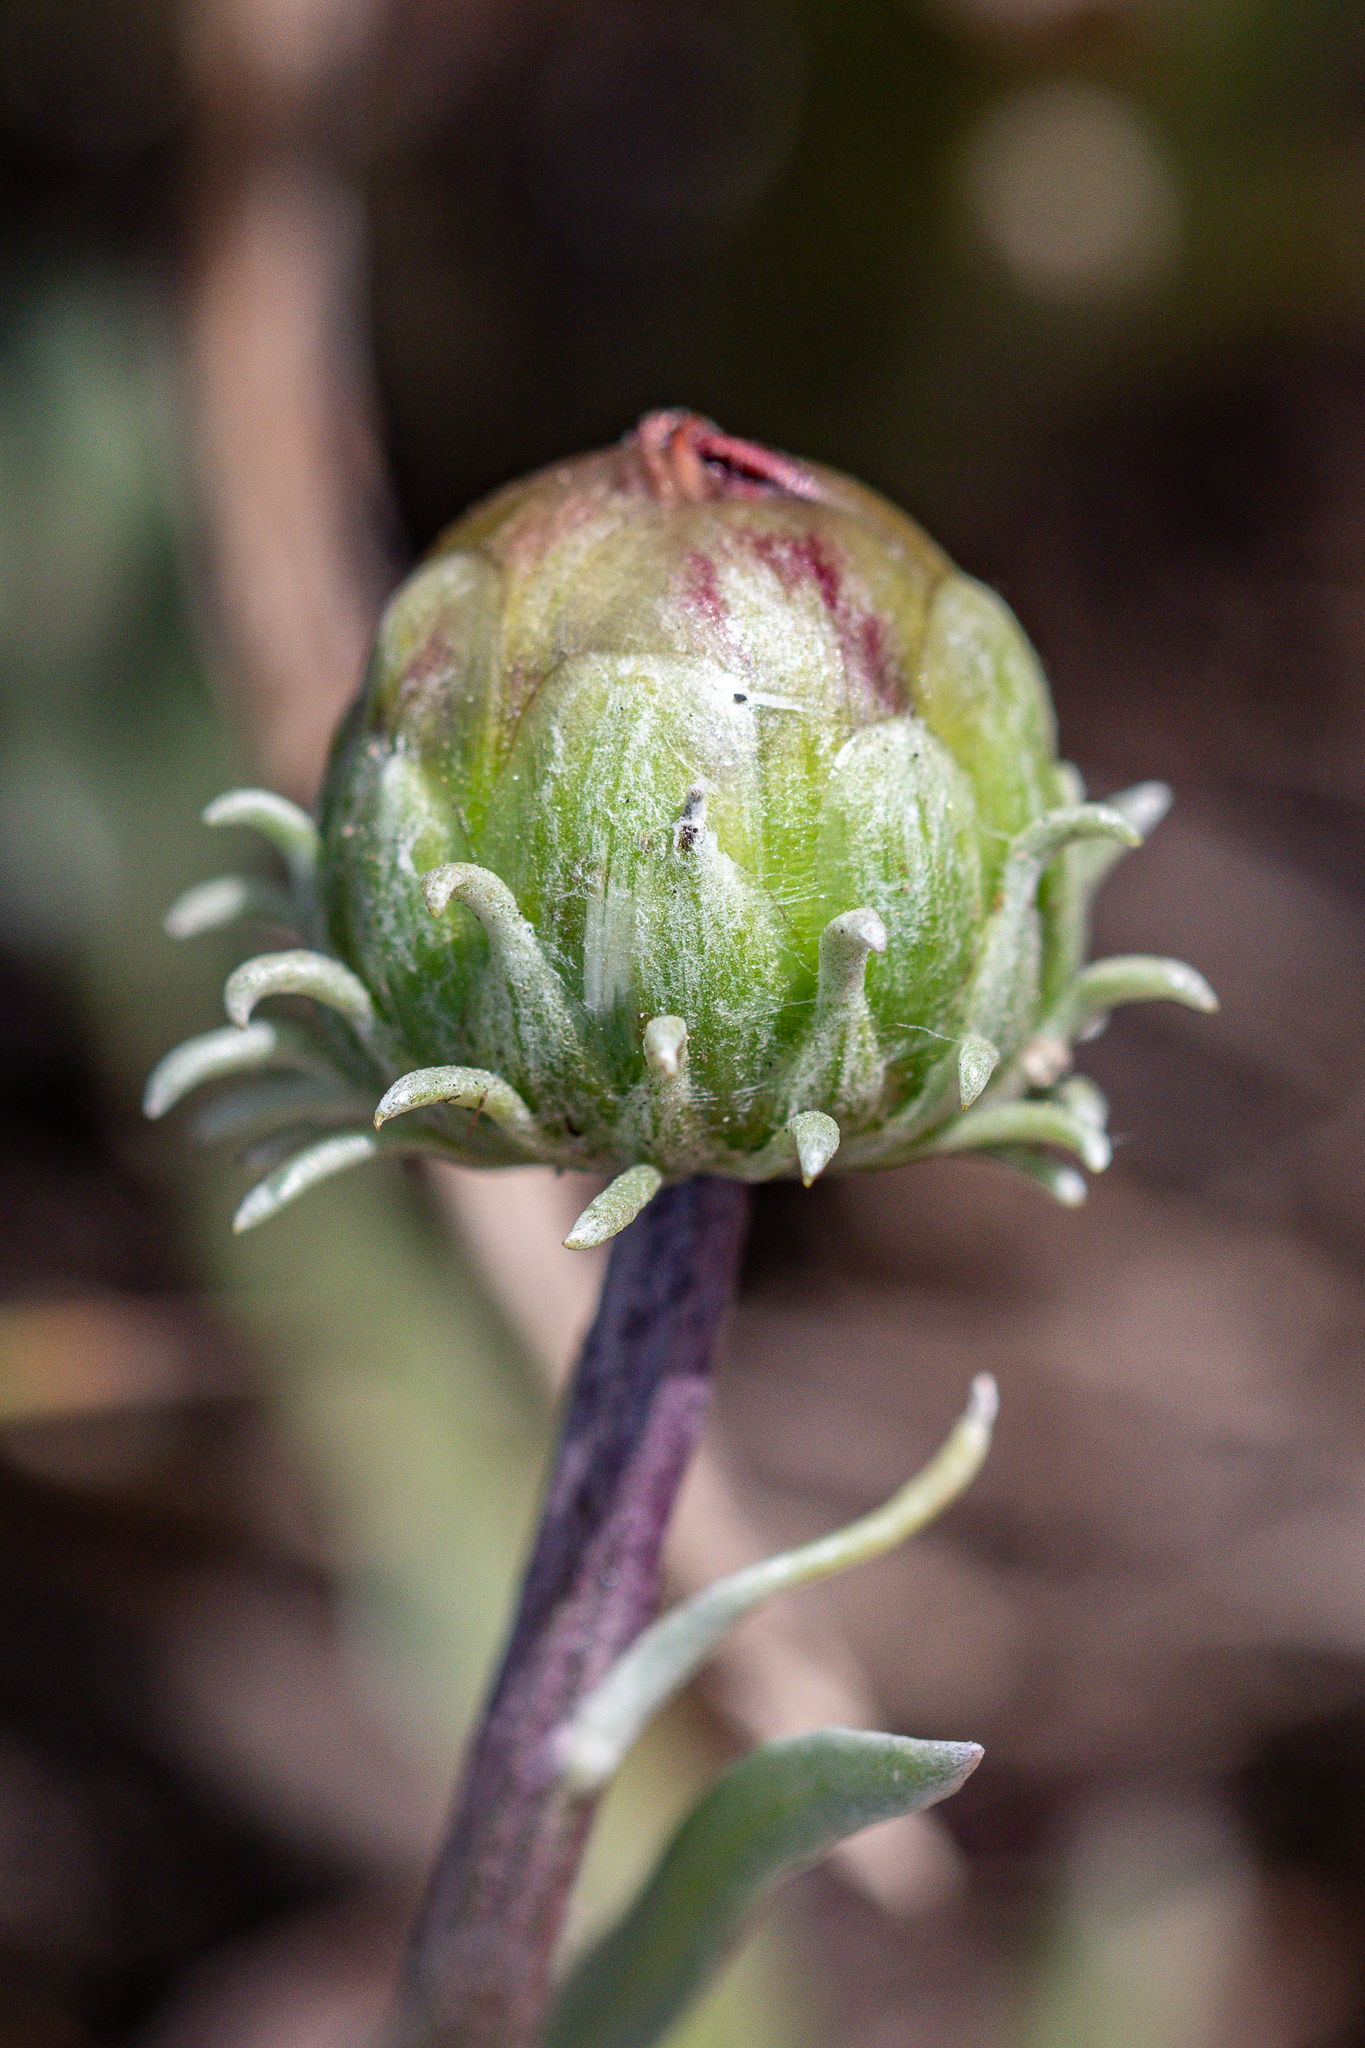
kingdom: Plantae
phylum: Tracheophyta
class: Magnoliopsida
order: Asterales
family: Asteraceae
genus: Arctotis
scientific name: Arctotis lanceolata
